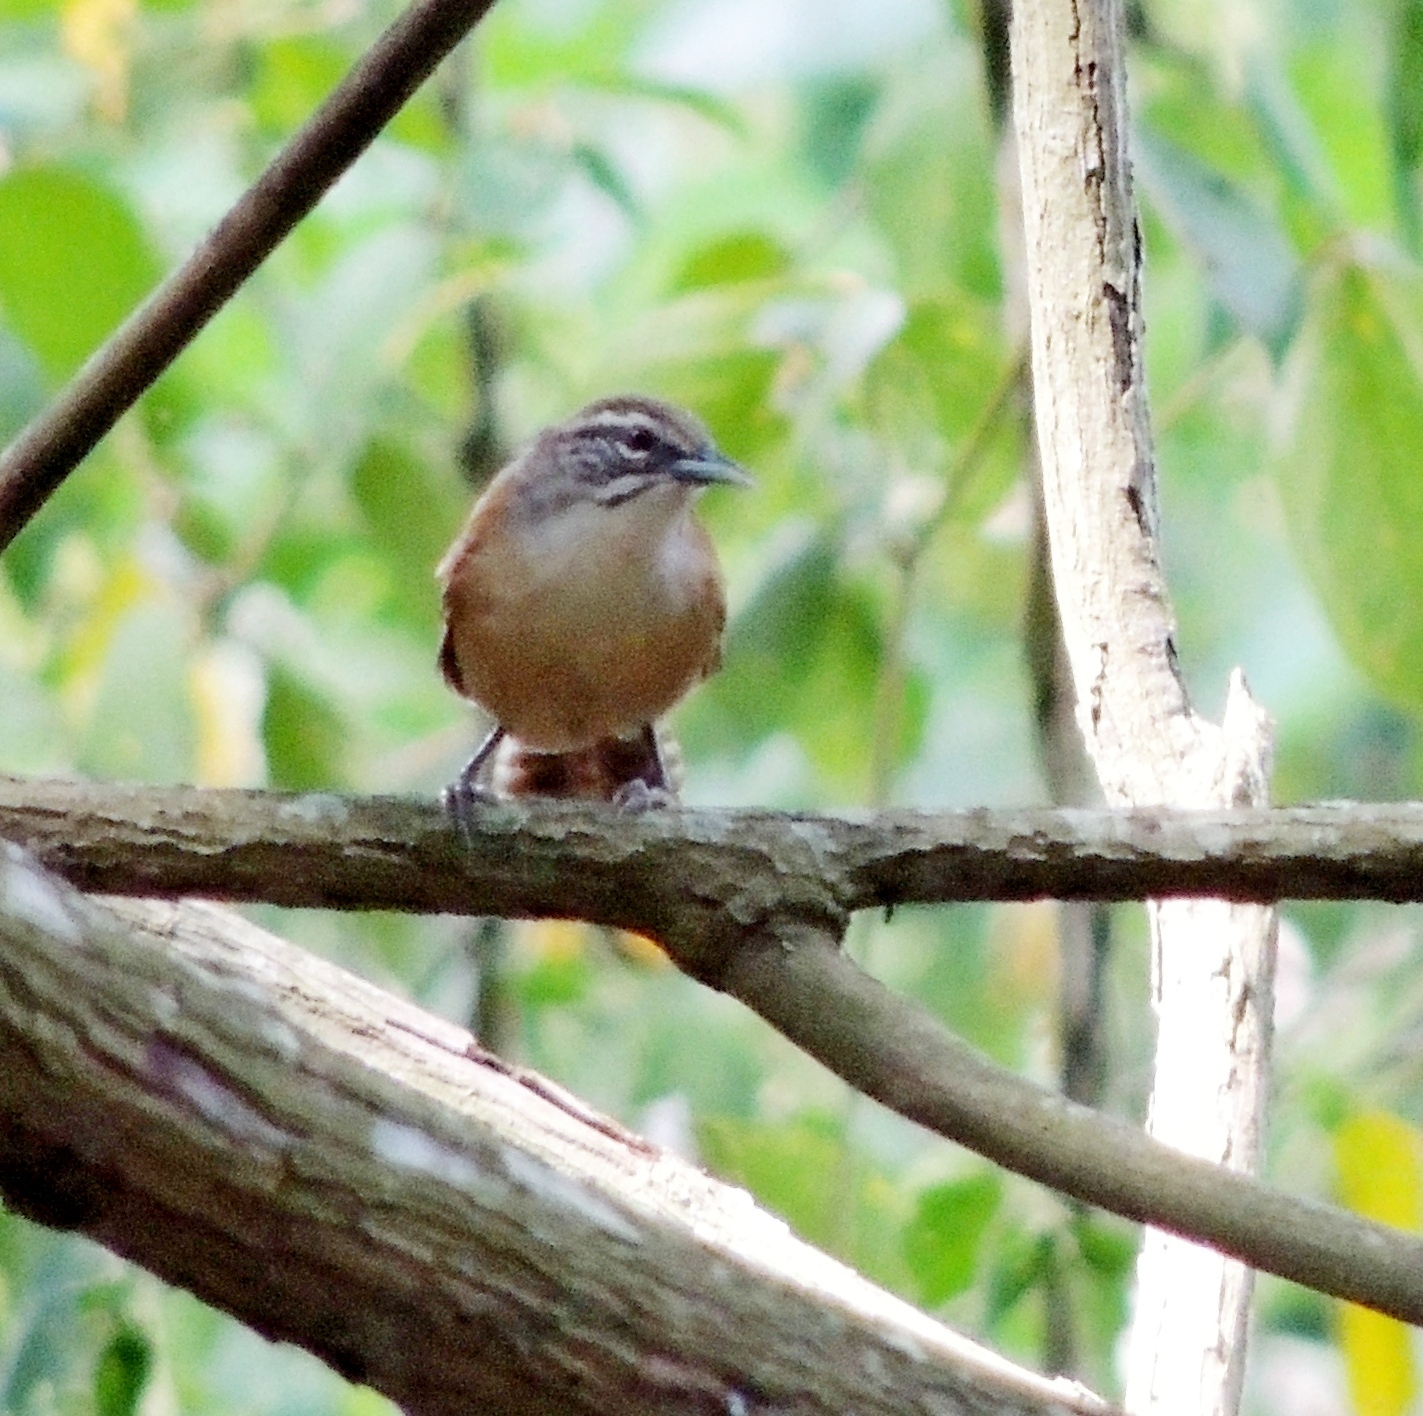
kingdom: Animalia
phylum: Chordata
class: Aves
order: Passeriformes
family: Troglodytidae
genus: Pheugopedius
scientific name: Pheugopedius genibarbis
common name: Moustached wren
